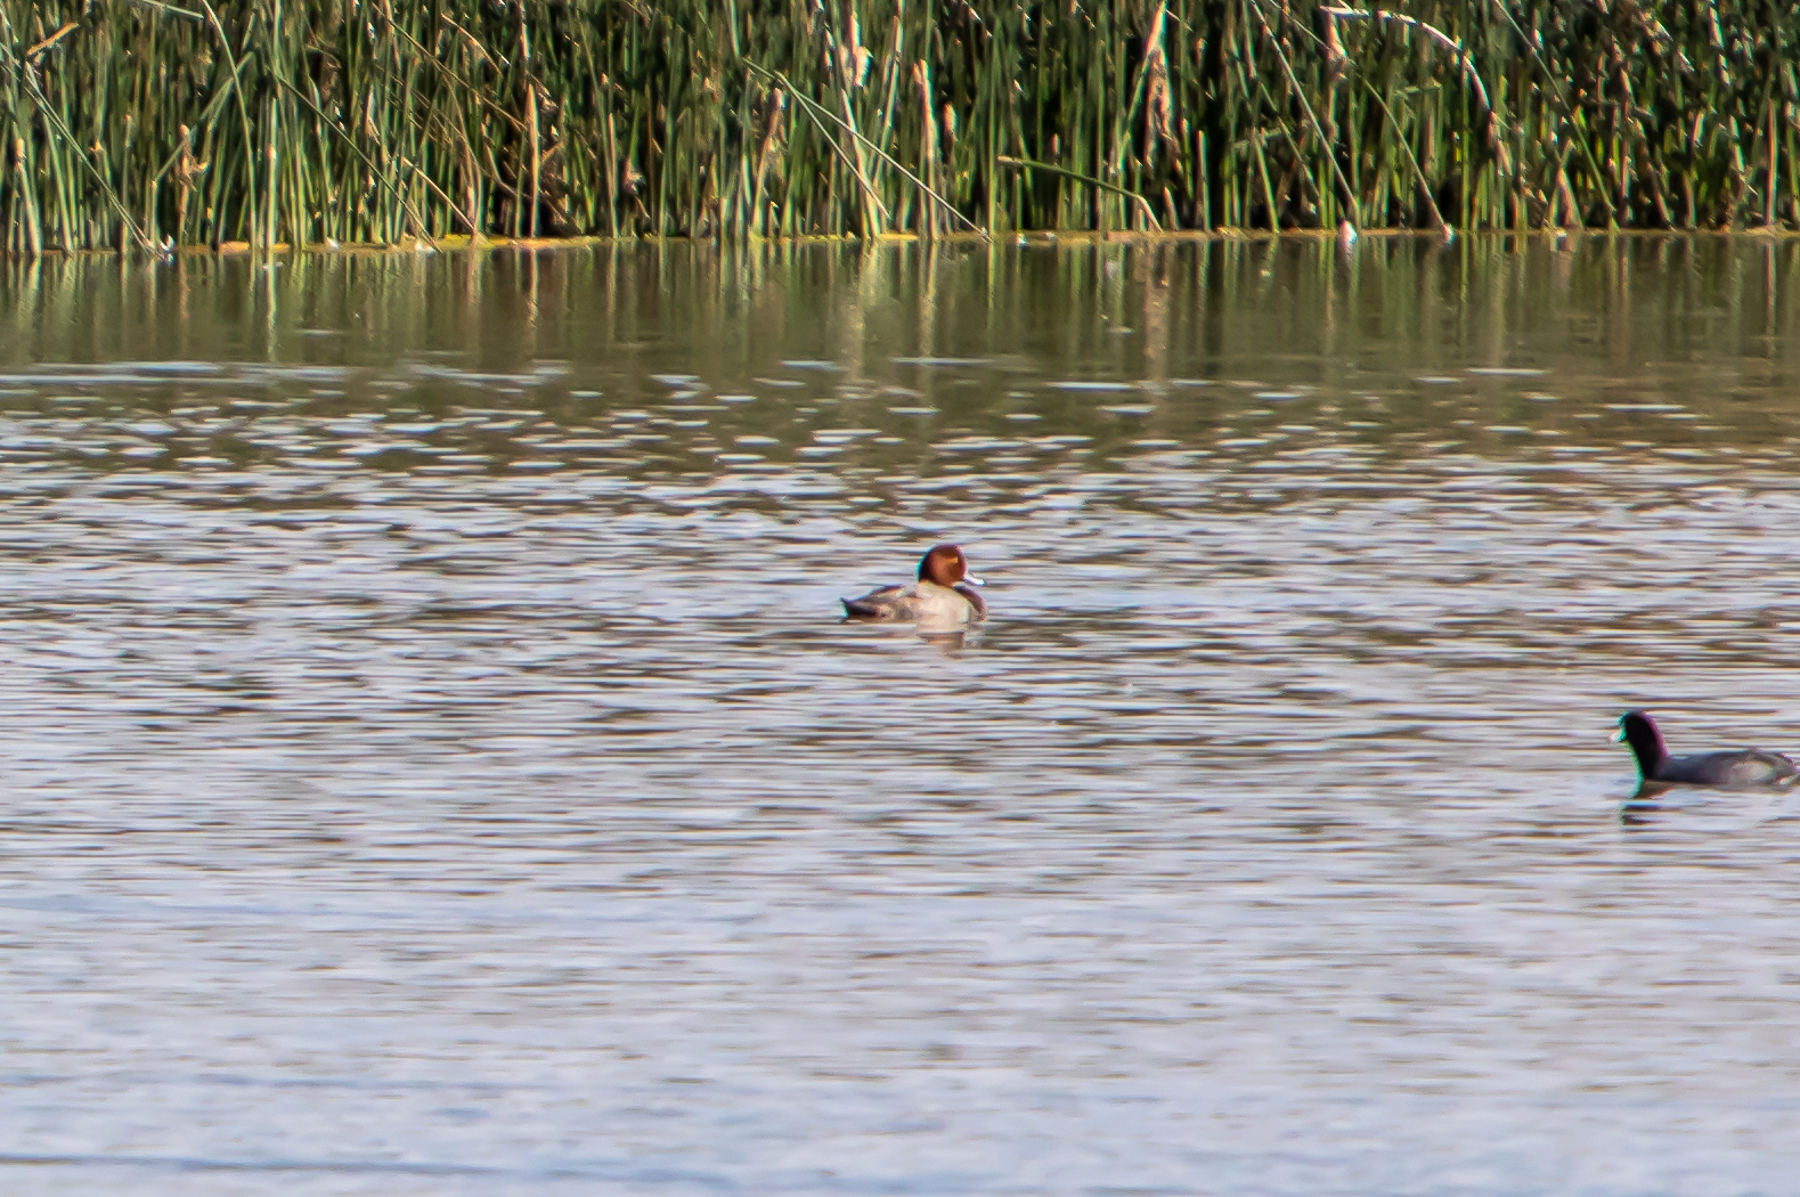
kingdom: Animalia
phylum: Chordata
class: Aves
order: Anseriformes
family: Anatidae
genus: Aythya
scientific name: Aythya americana
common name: Redhead
